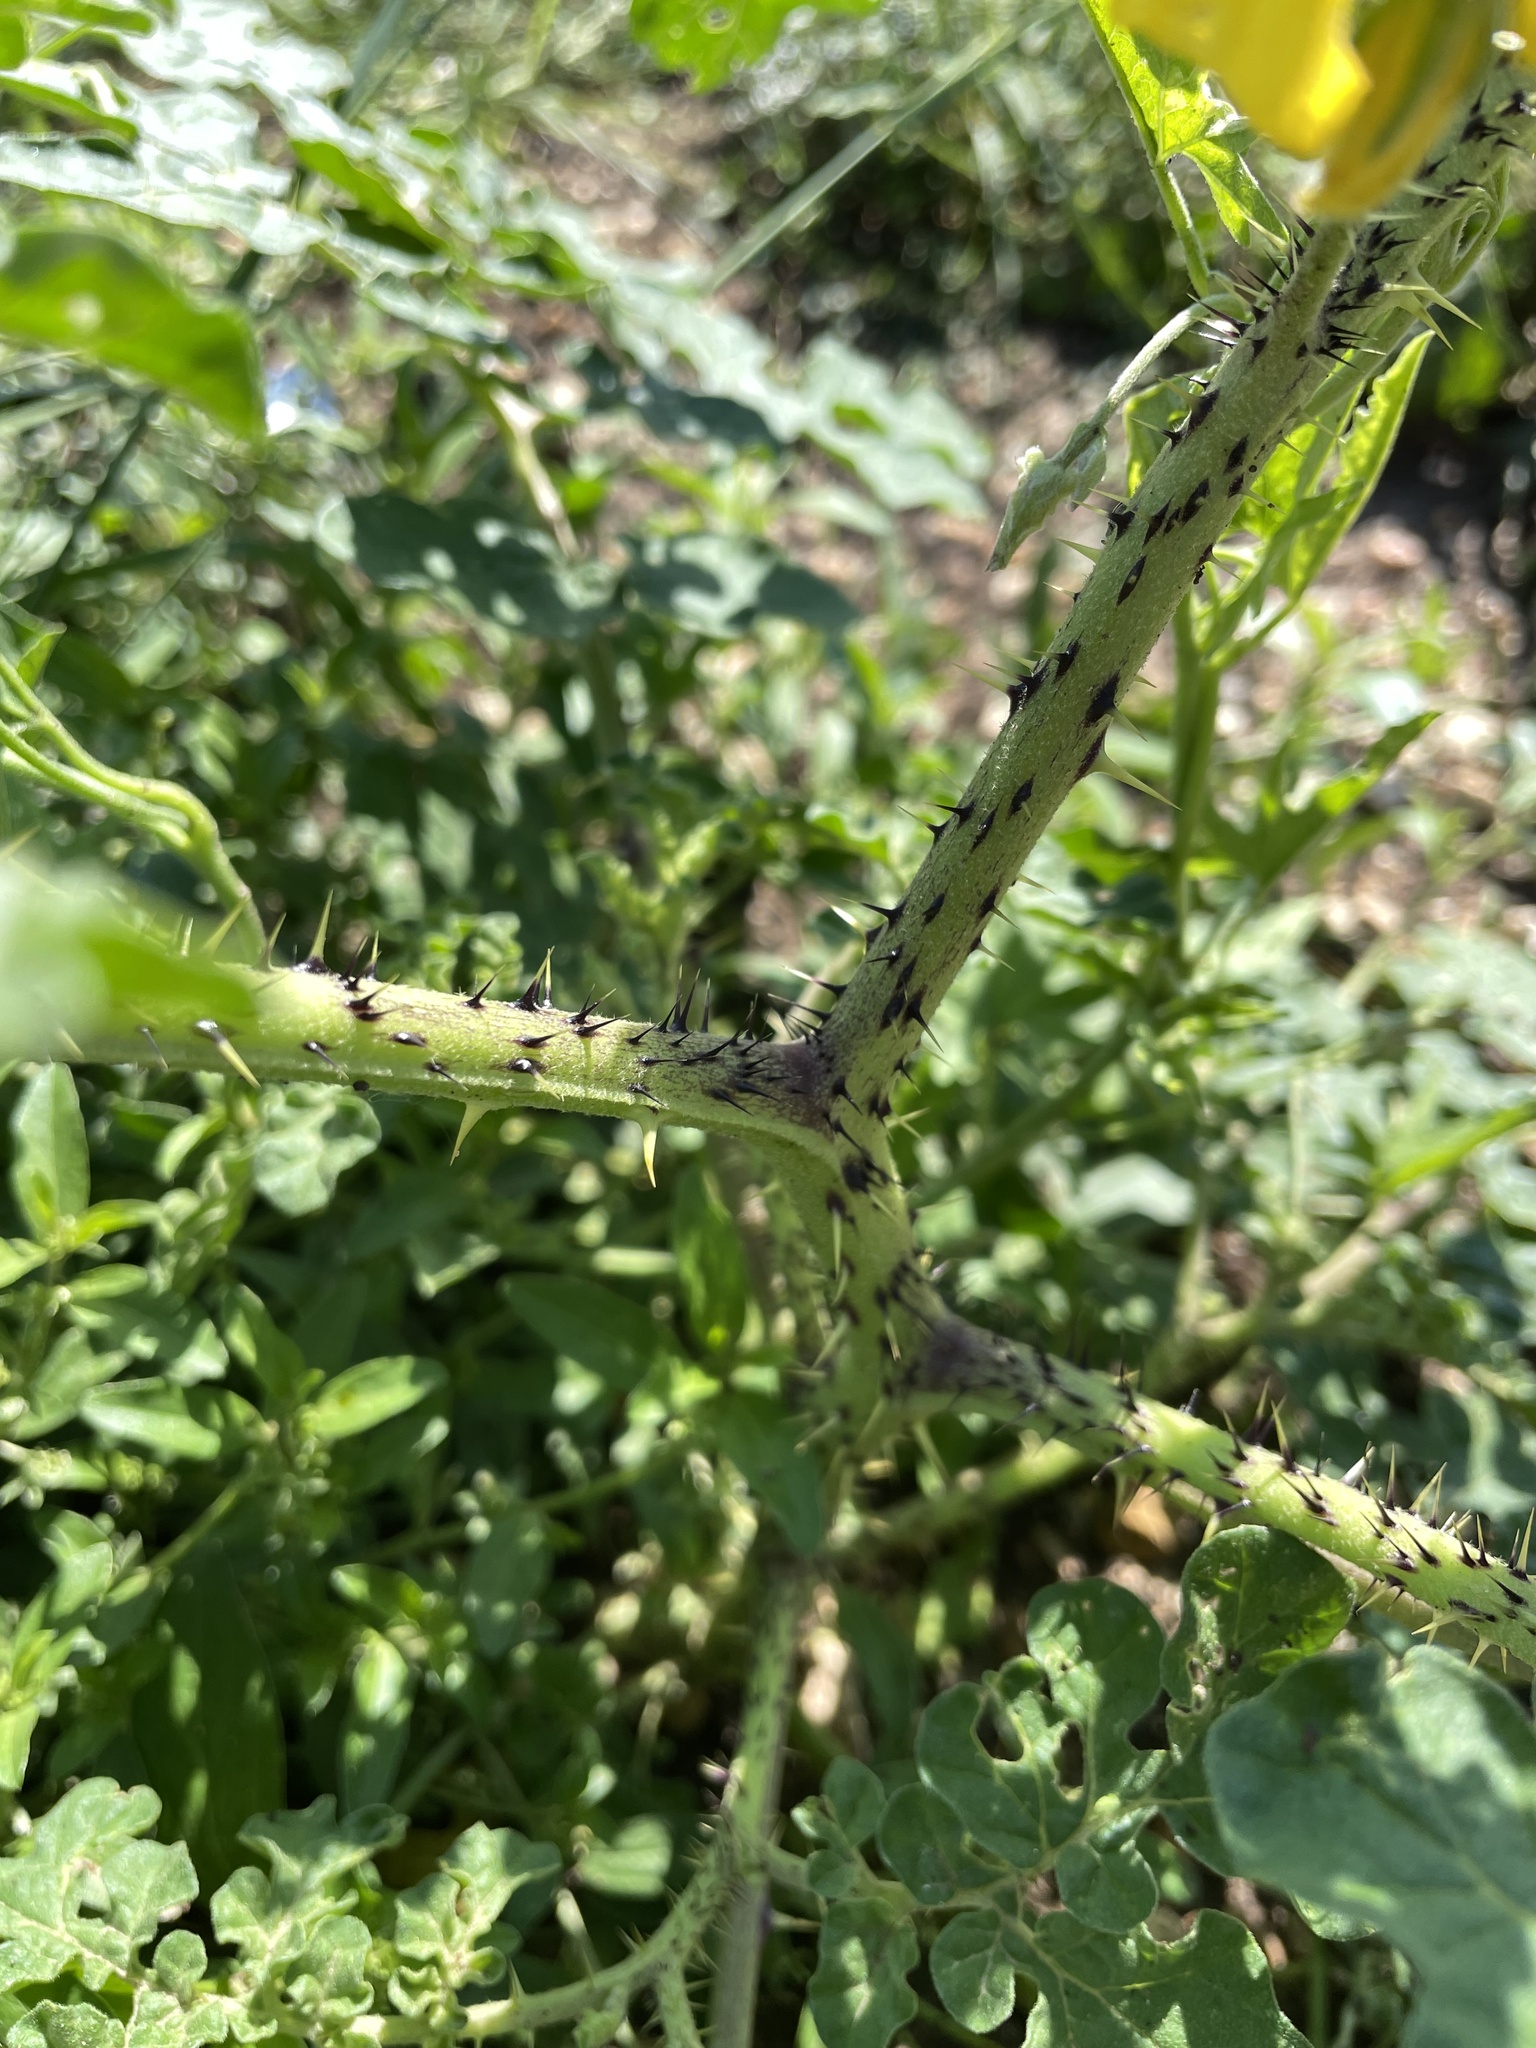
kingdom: Plantae
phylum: Tracheophyta
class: Magnoliopsida
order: Solanales
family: Solanaceae
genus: Solanum
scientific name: Solanum angustifolium
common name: Buffalobur nightshade
